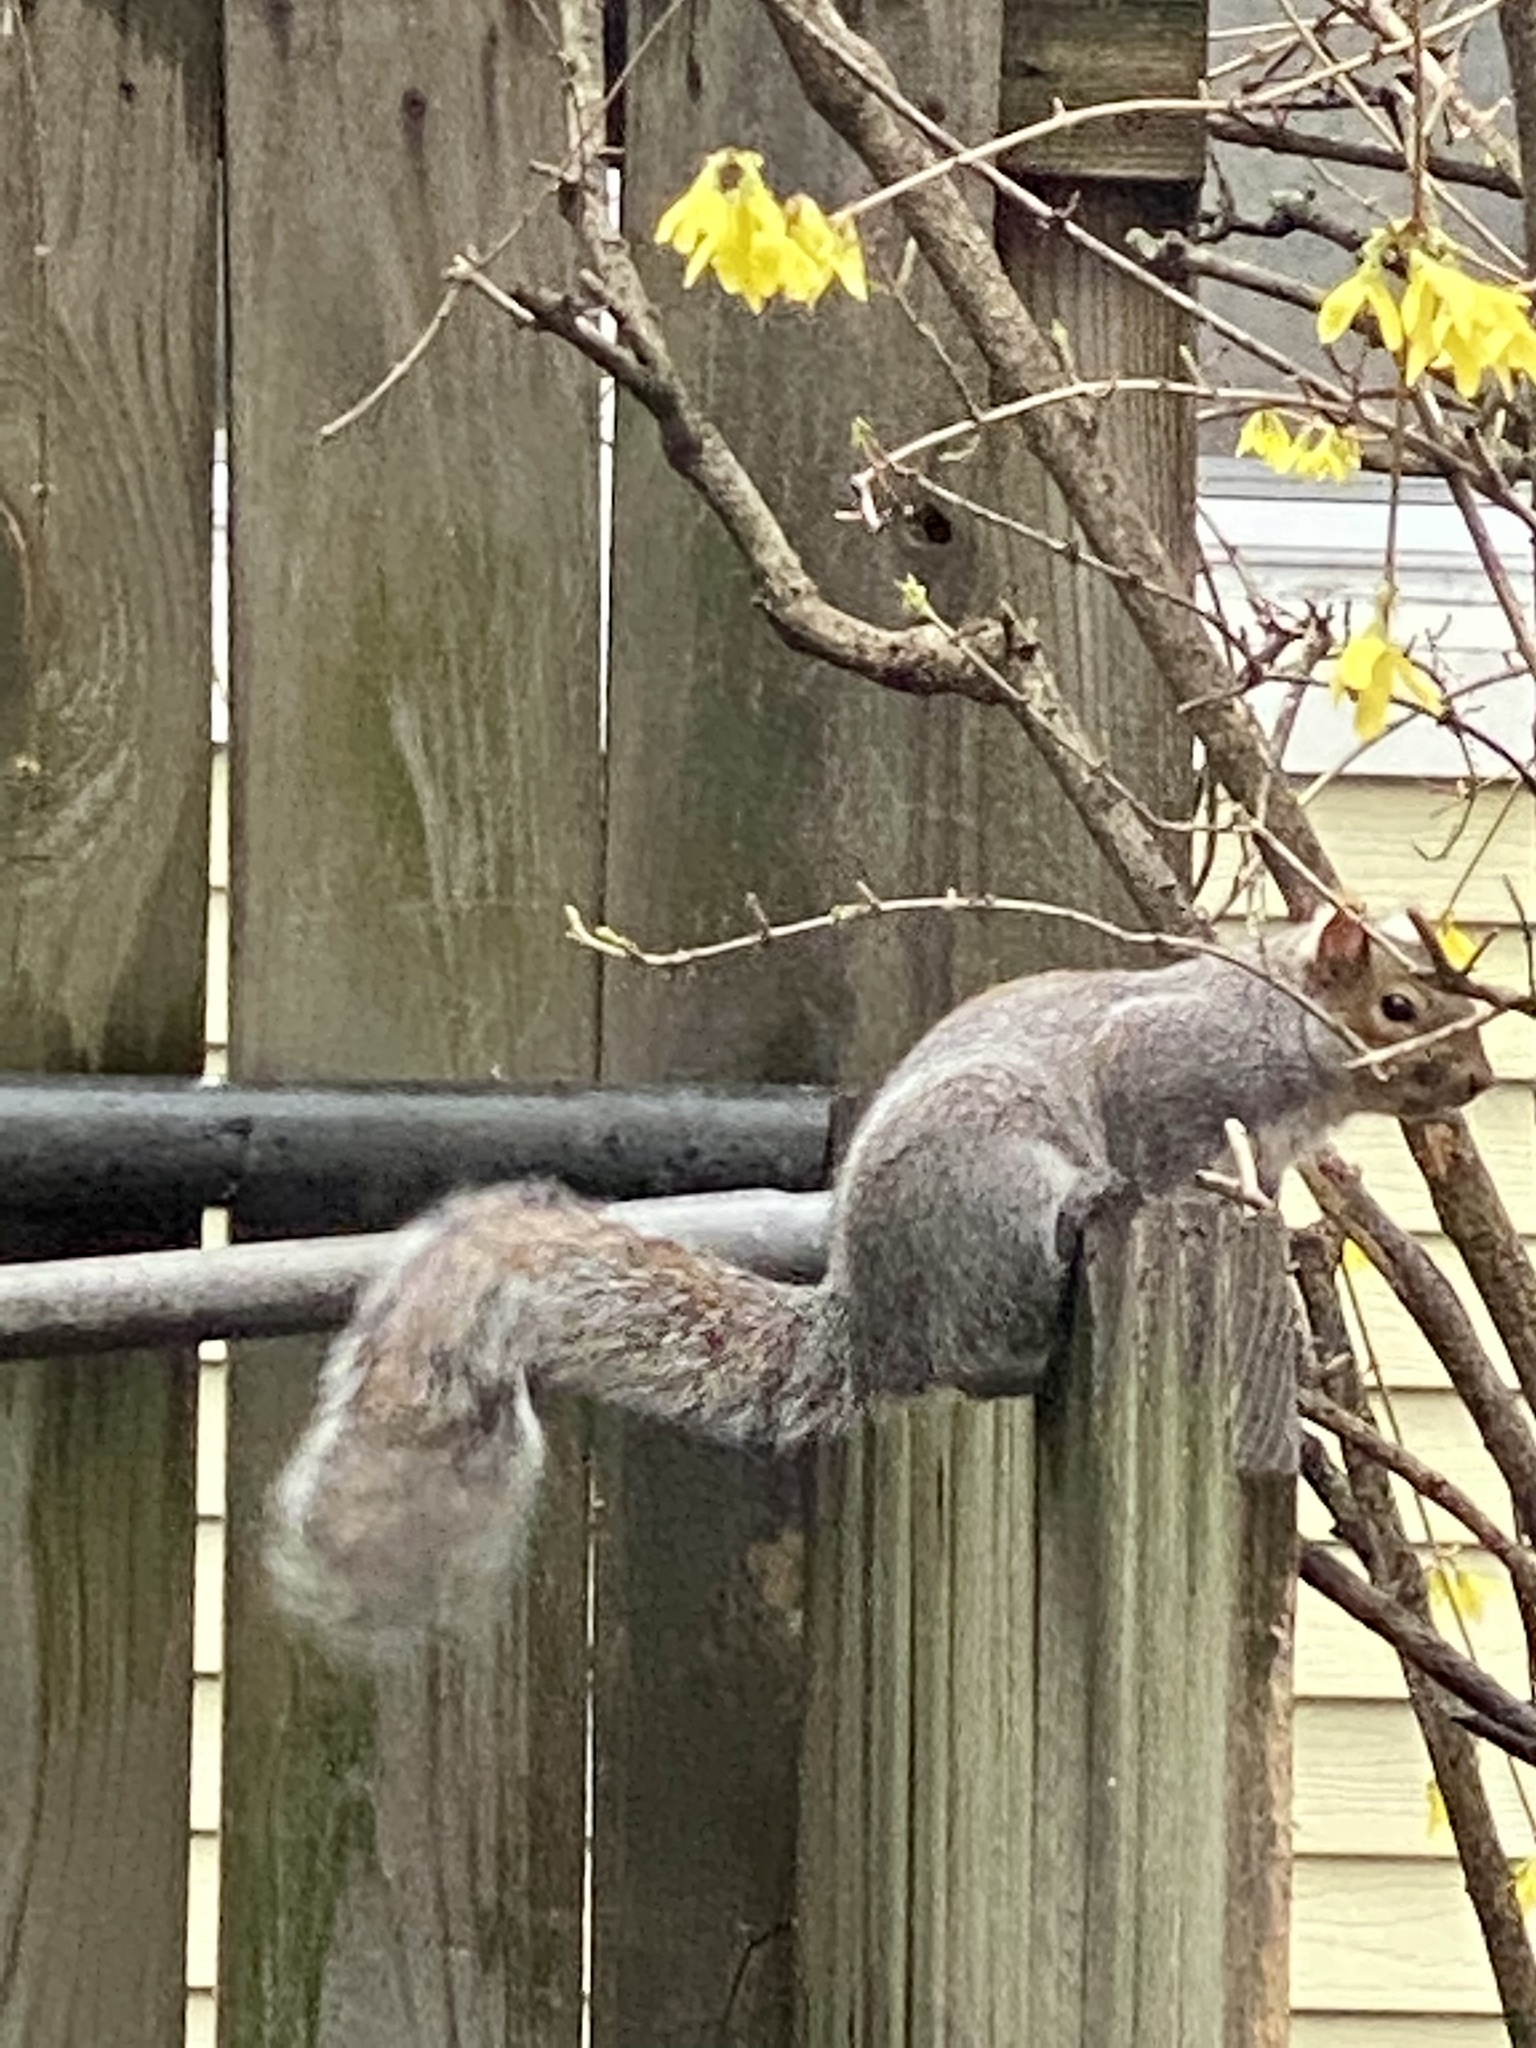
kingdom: Animalia
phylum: Chordata
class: Mammalia
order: Rodentia
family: Sciuridae
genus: Sciurus
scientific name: Sciurus carolinensis
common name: Eastern gray squirrel
